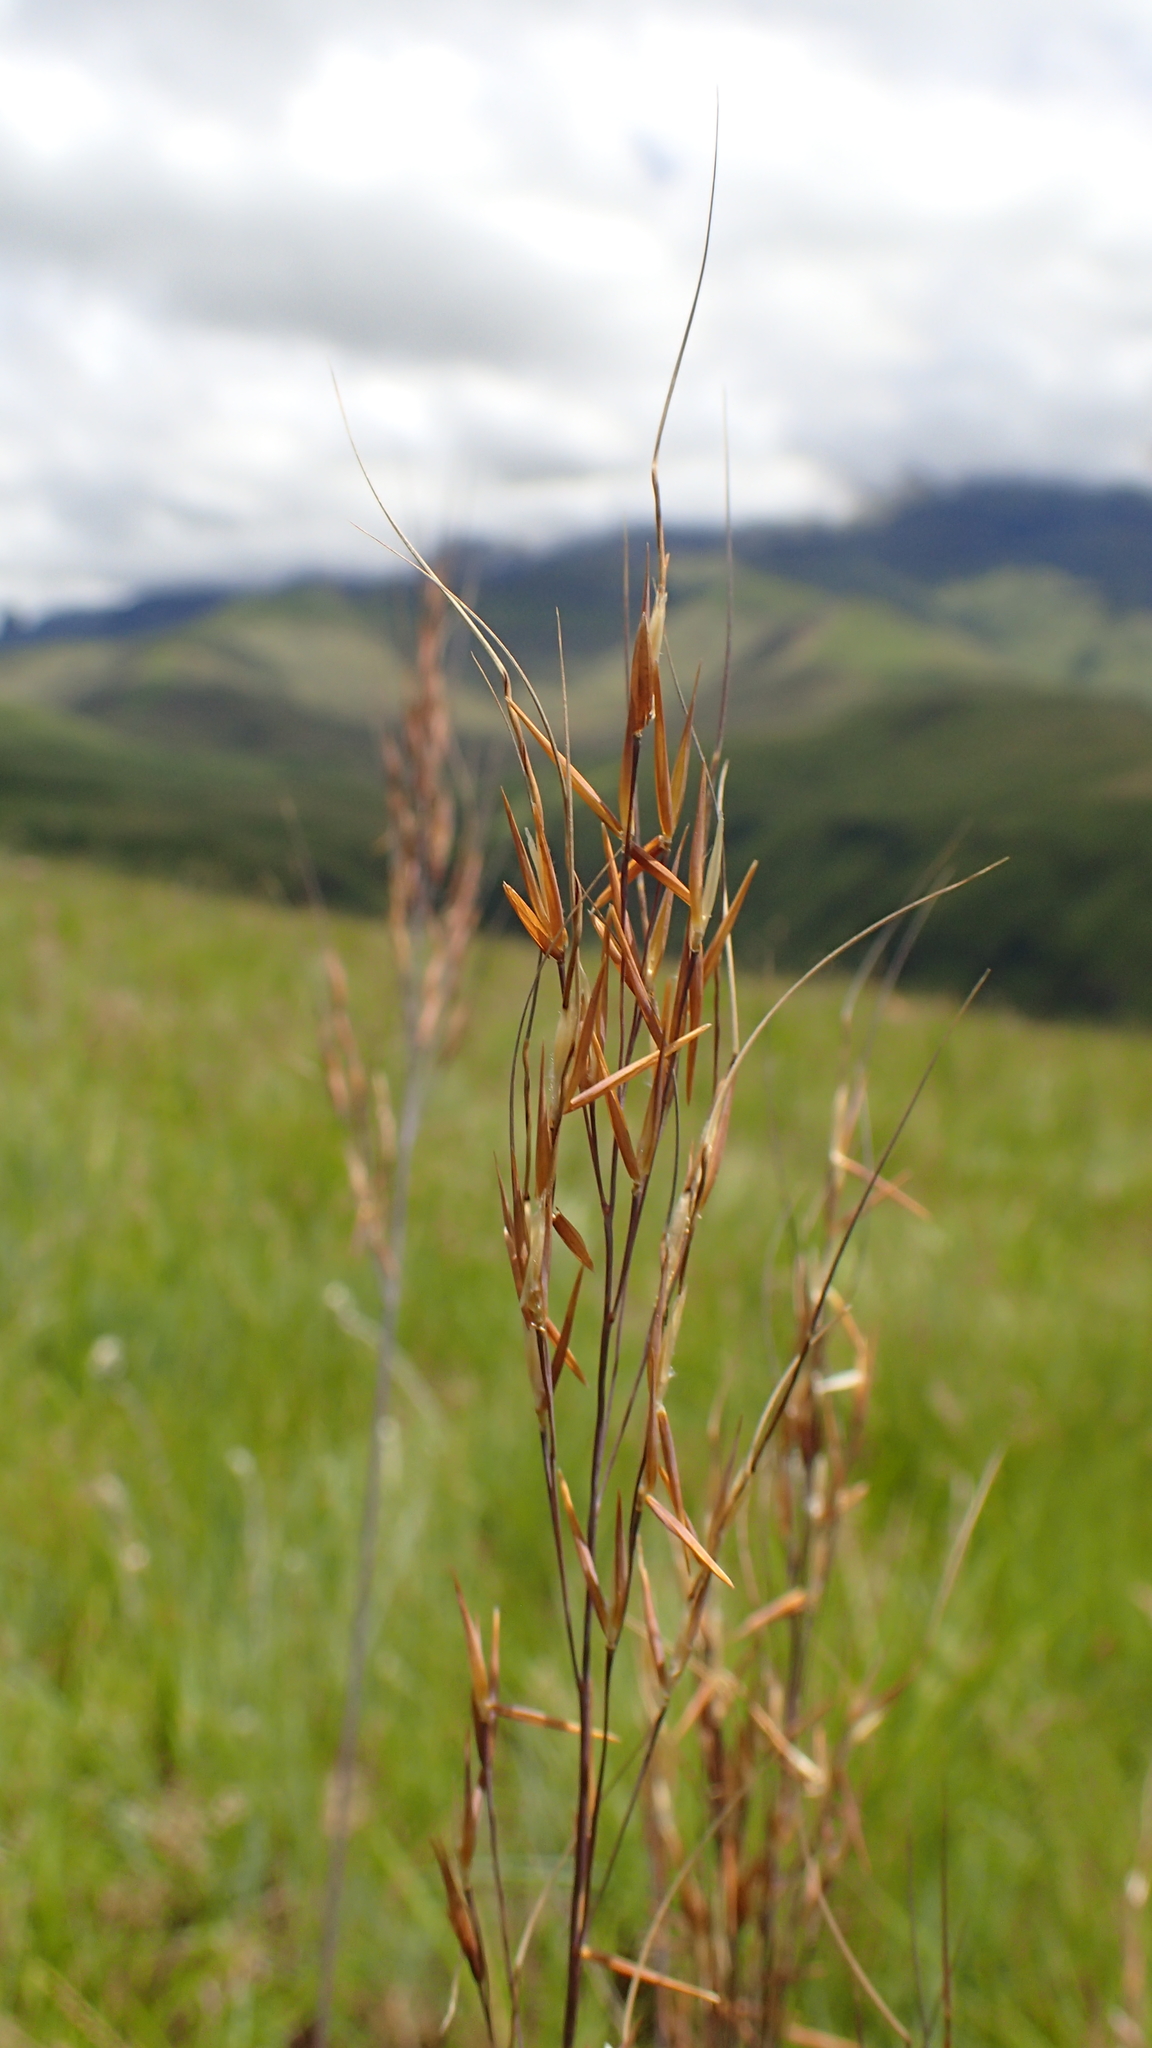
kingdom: Plantae
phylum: Tracheophyta
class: Liliopsida
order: Poales
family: Poaceae
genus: Loudetia
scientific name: Loudetia simplex
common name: Common russet grass
